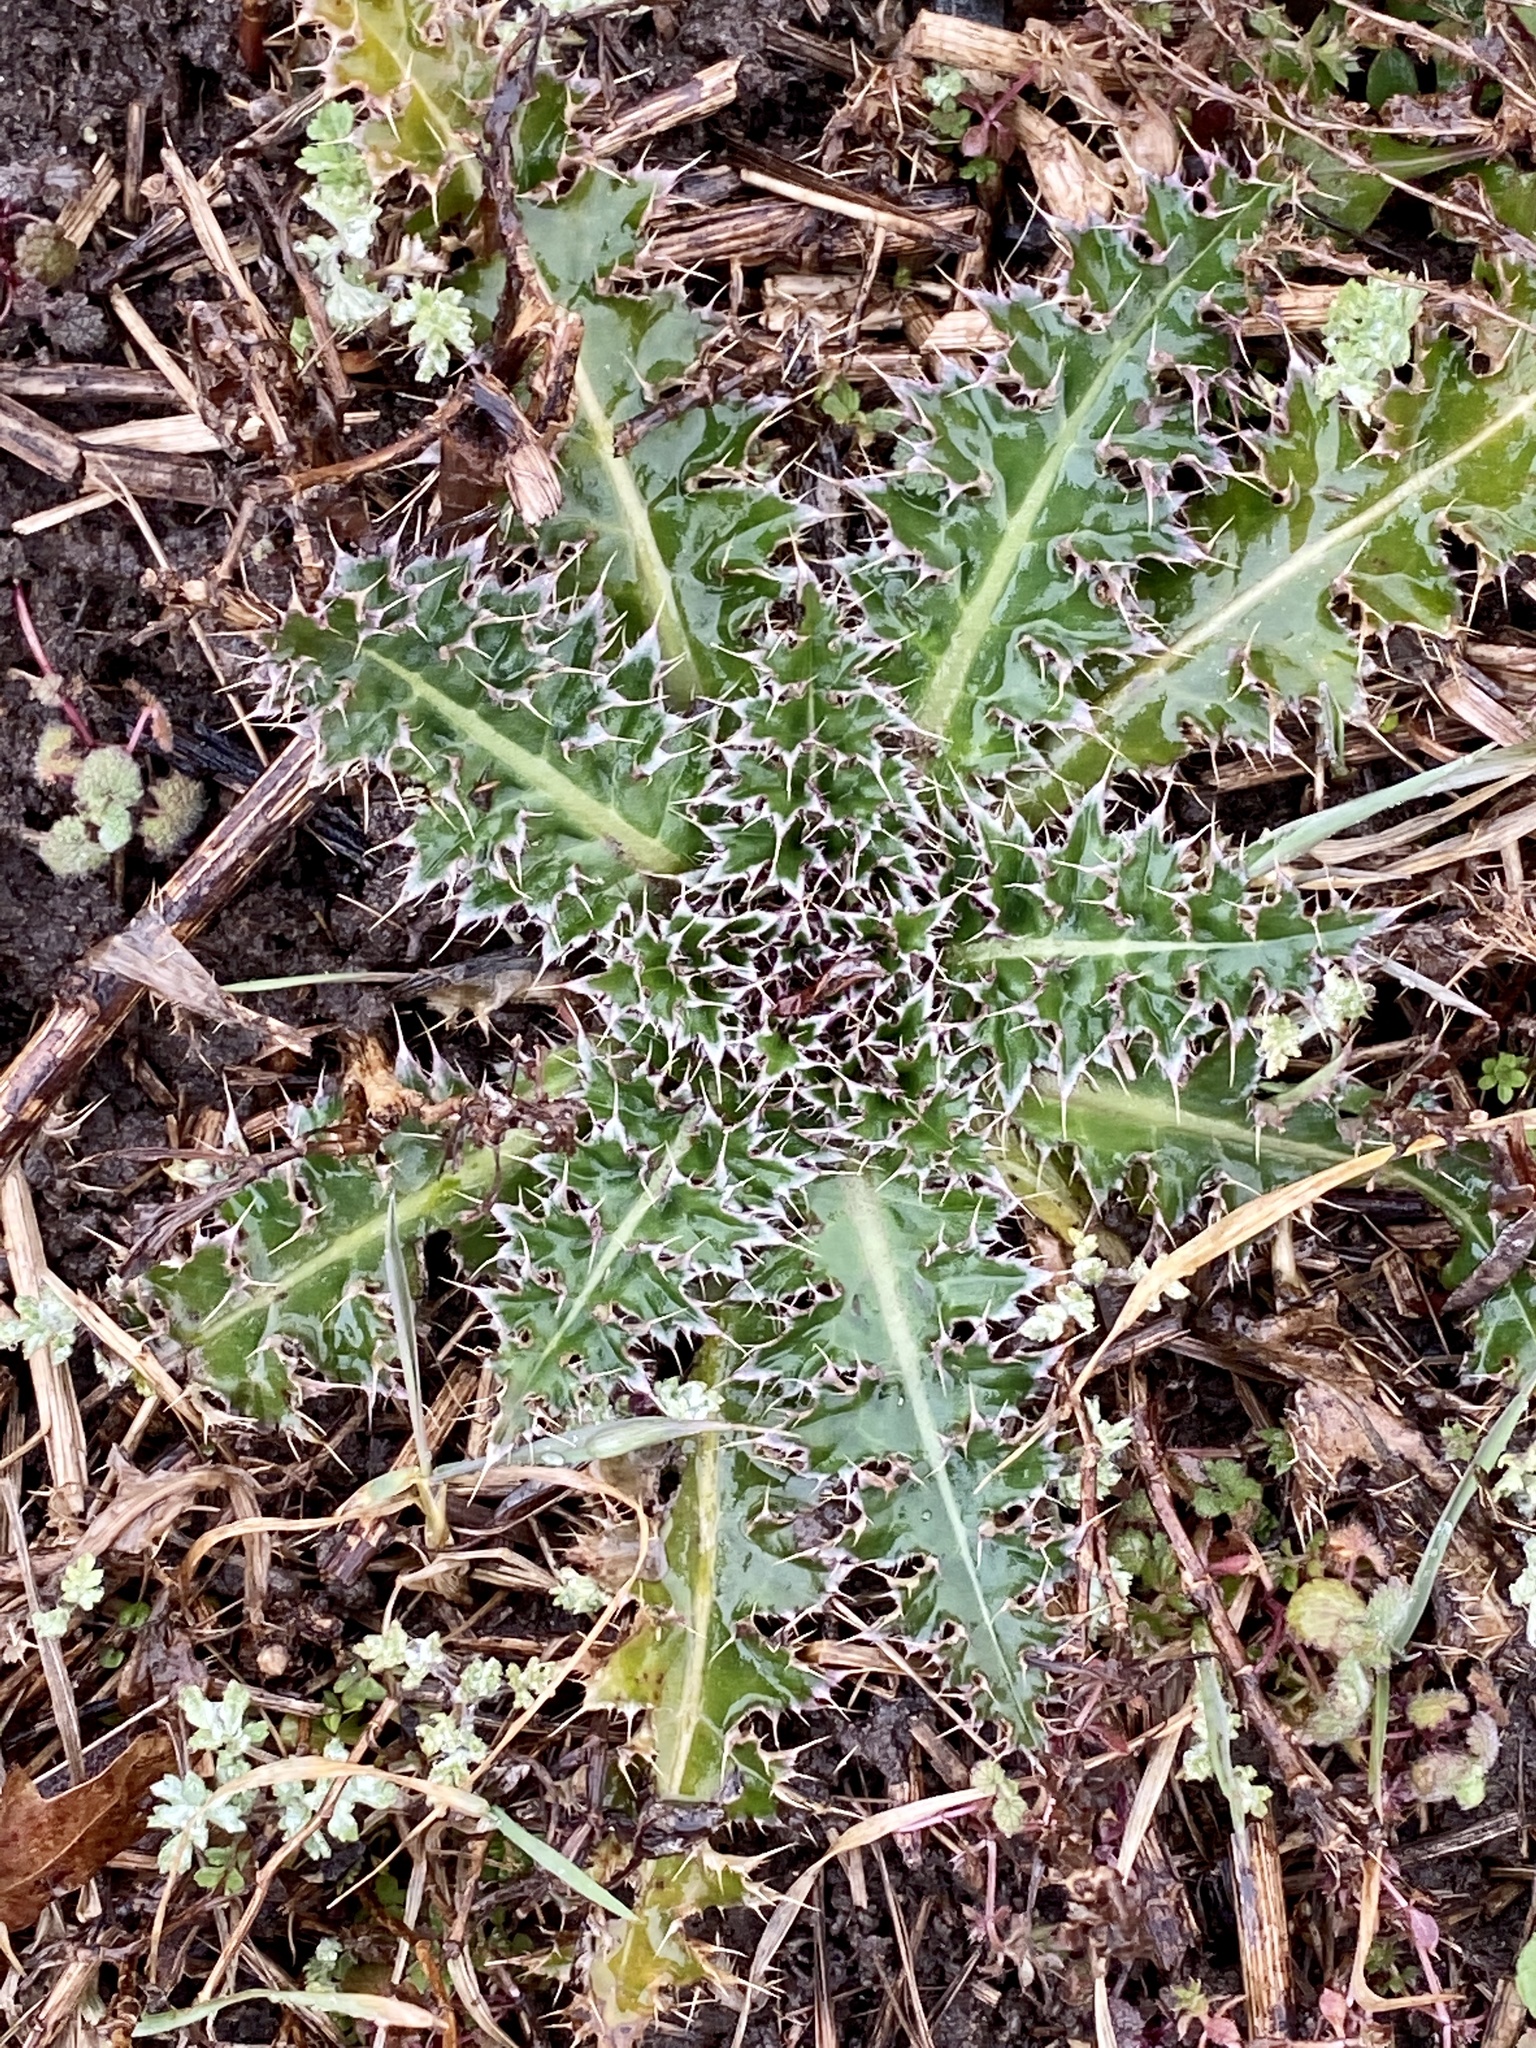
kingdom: Plantae
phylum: Tracheophyta
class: Magnoliopsida
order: Asterales
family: Asteraceae
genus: Carduus
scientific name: Carduus nutans
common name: Musk thistle
